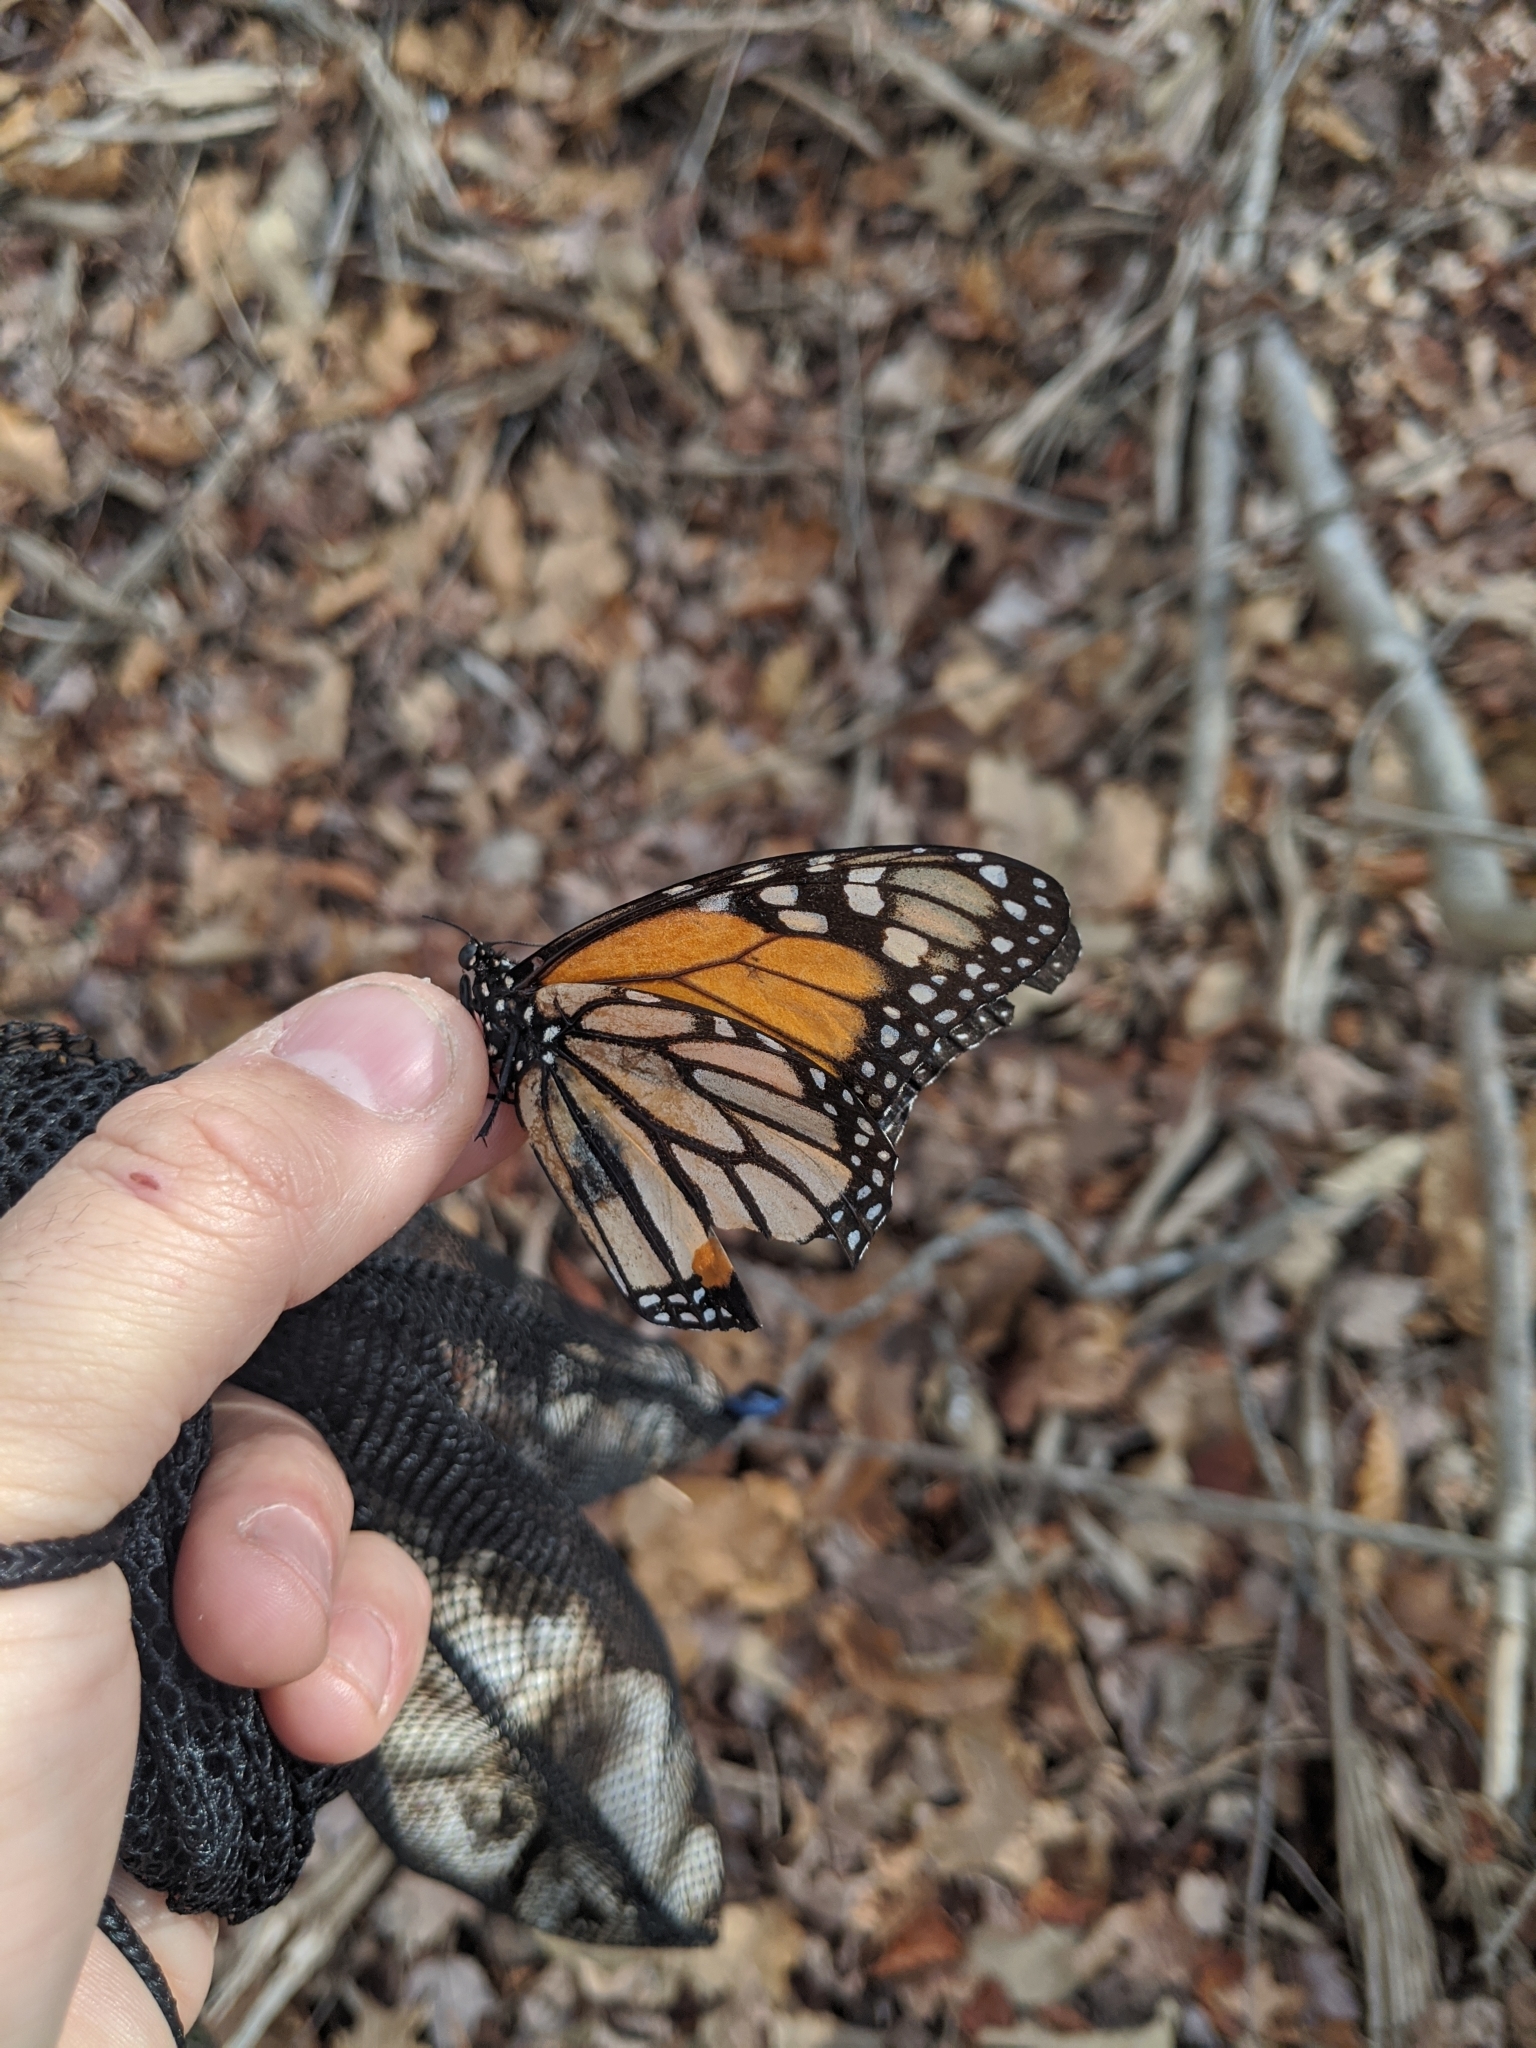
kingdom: Animalia
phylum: Arthropoda
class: Insecta
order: Lepidoptera
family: Nymphalidae
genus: Danaus
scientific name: Danaus plexippus
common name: Monarch
